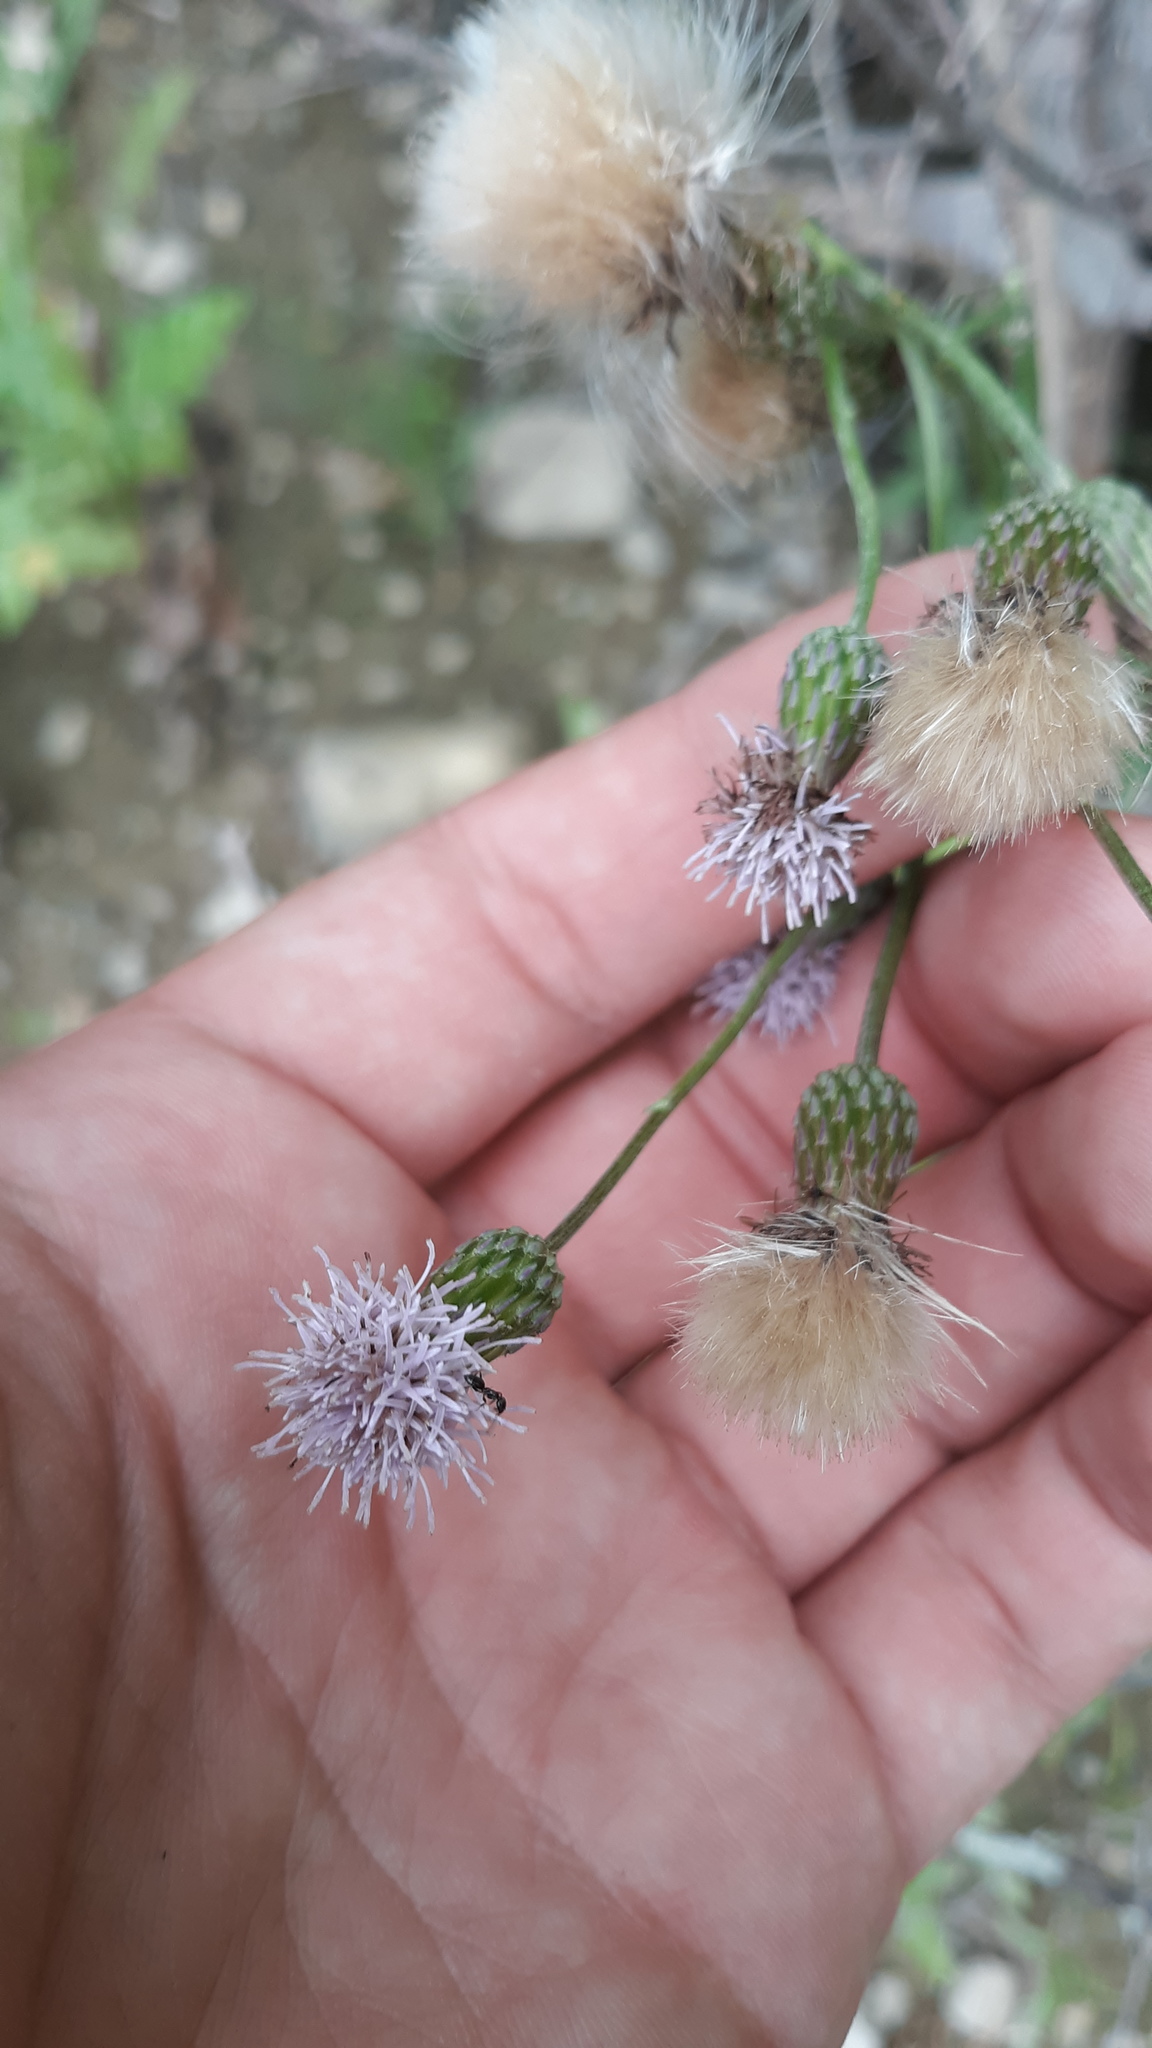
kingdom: Plantae
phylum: Tracheophyta
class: Magnoliopsida
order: Asterales
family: Asteraceae
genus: Cirsium
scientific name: Cirsium arvense
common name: Creeping thistle
